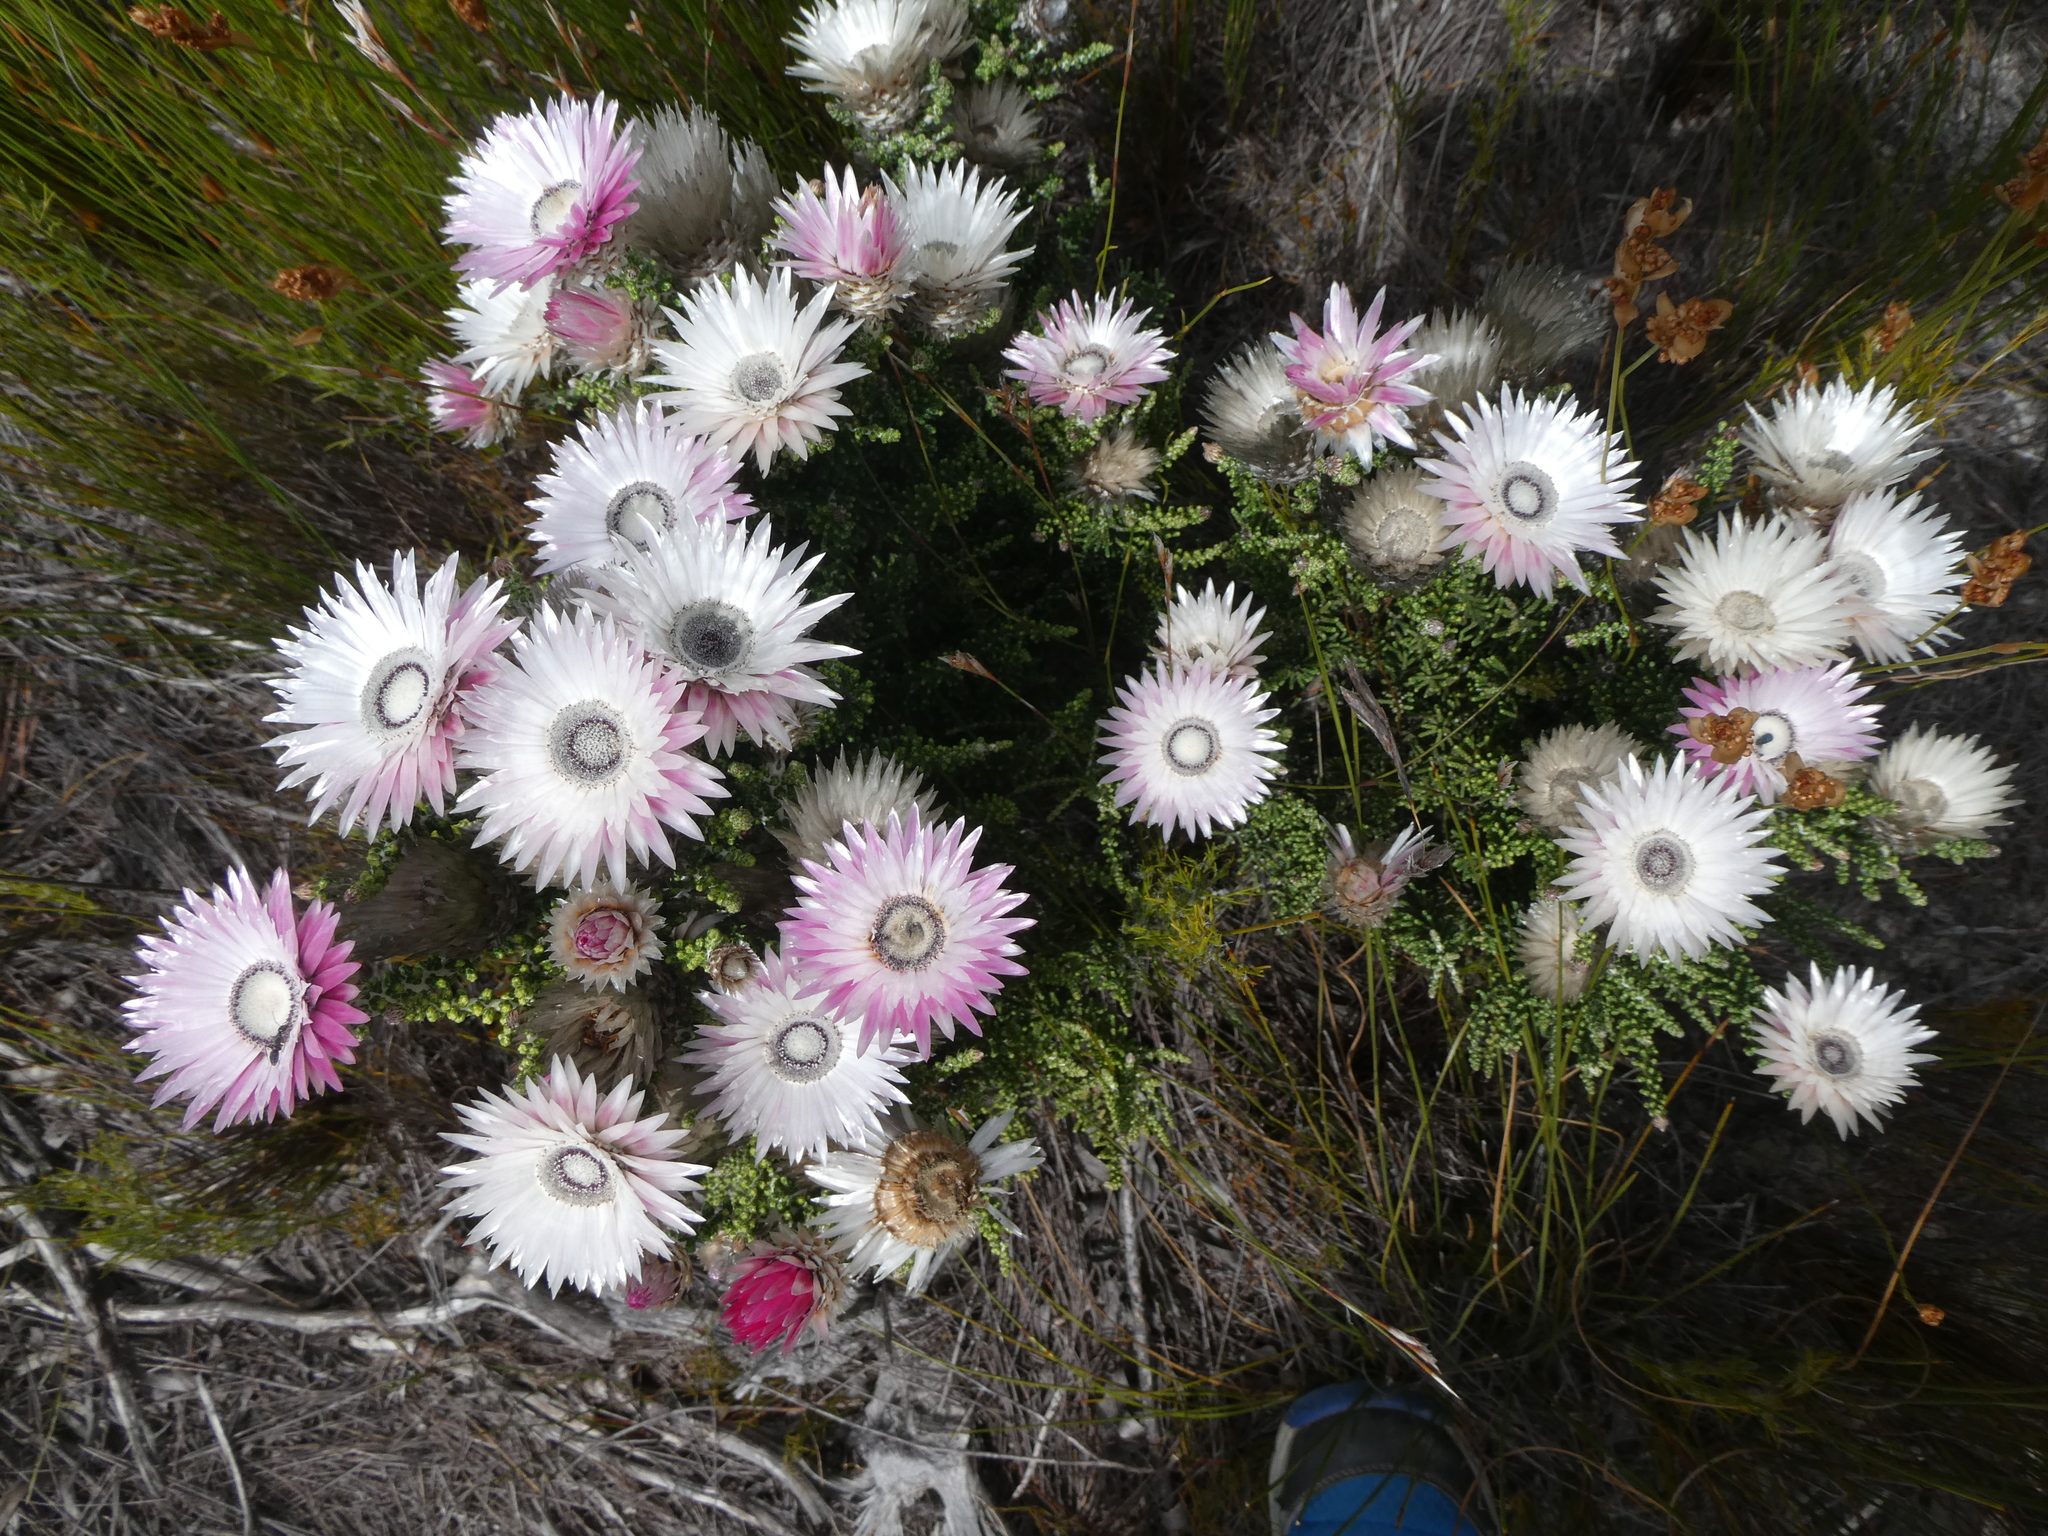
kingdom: Plantae
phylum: Tracheophyta
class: Magnoliopsida
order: Asterales
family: Asteraceae
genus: Phaenocoma
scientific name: Phaenocoma prolifera
